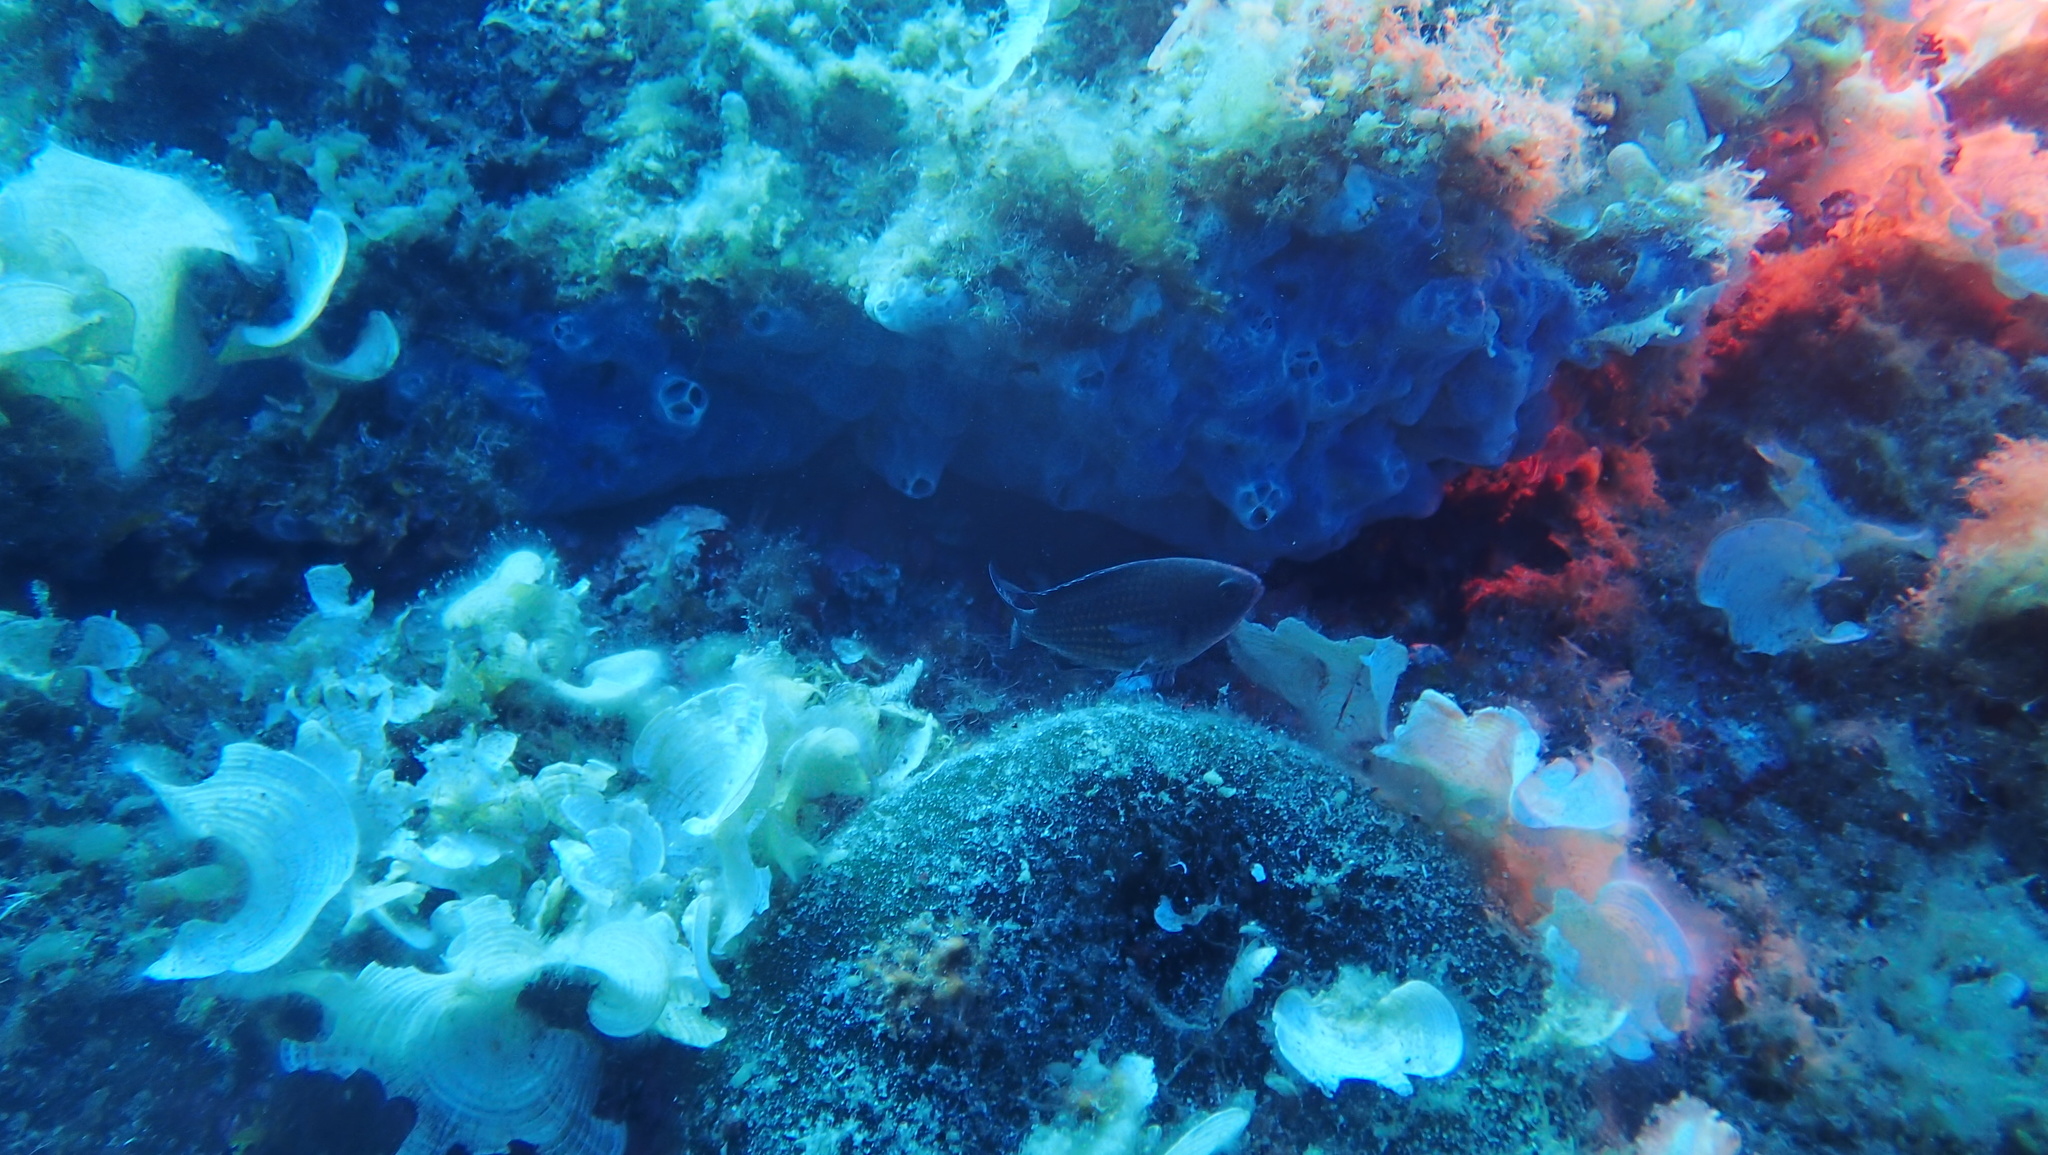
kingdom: Animalia
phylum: Chordata
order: Perciformes
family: Pomacentridae
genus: Chromis
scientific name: Chromis chromis
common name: Damselfish
